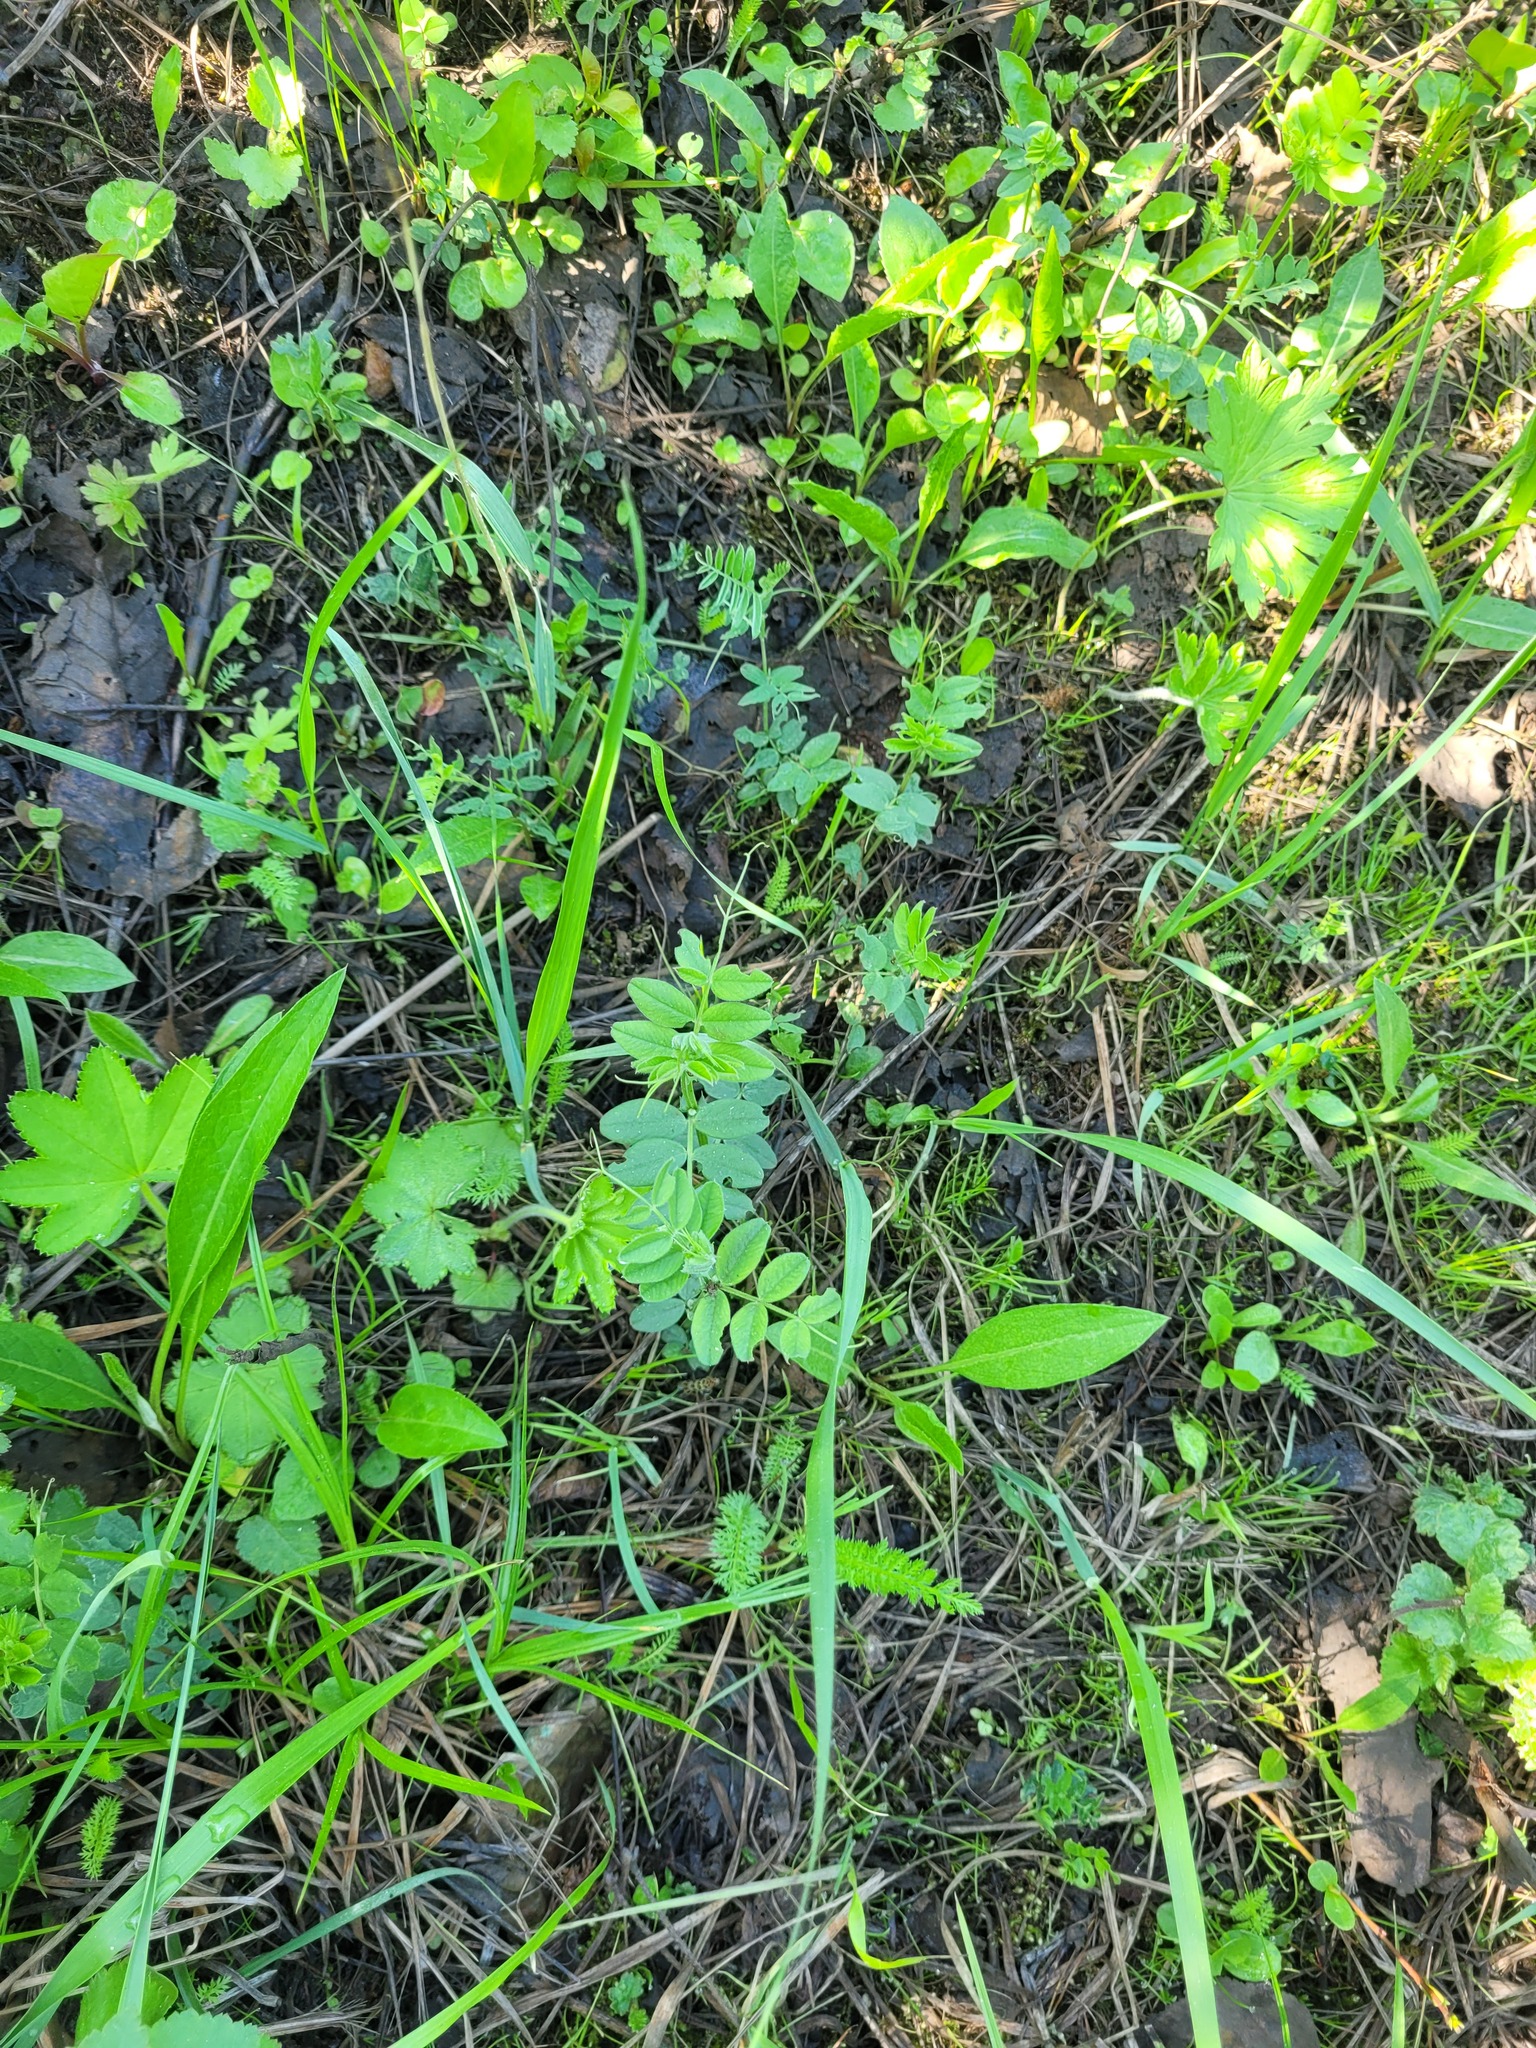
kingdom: Plantae
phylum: Tracheophyta
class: Magnoliopsida
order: Fabales
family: Fabaceae
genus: Vicia
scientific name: Vicia sepium
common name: Bush vetch
